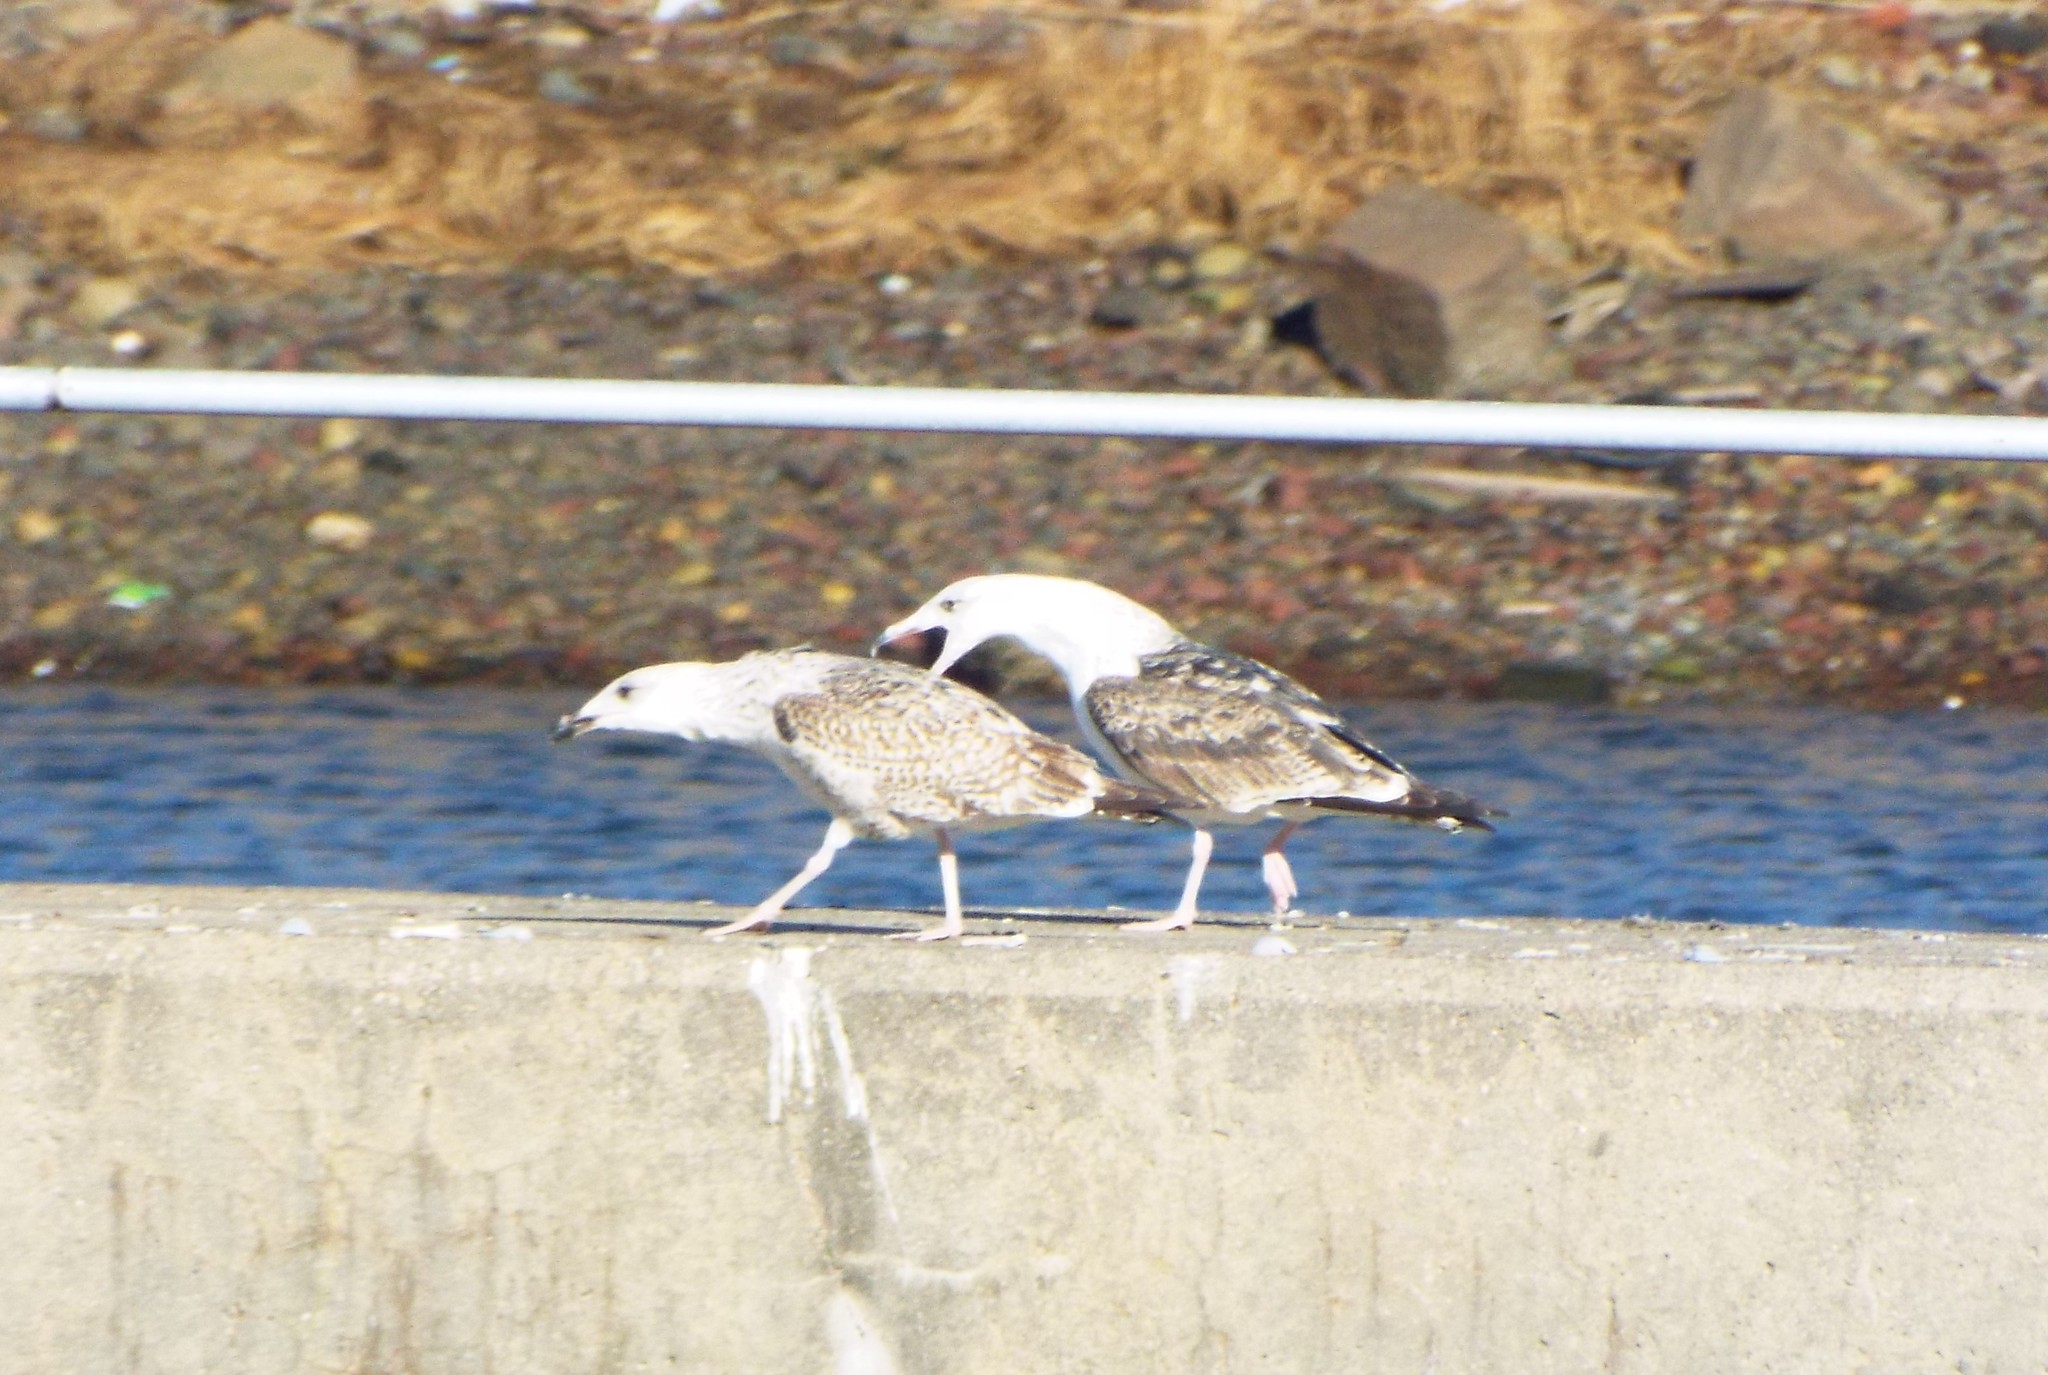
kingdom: Animalia
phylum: Chordata
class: Aves
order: Charadriiformes
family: Laridae
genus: Larus
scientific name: Larus marinus
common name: Great black-backed gull
